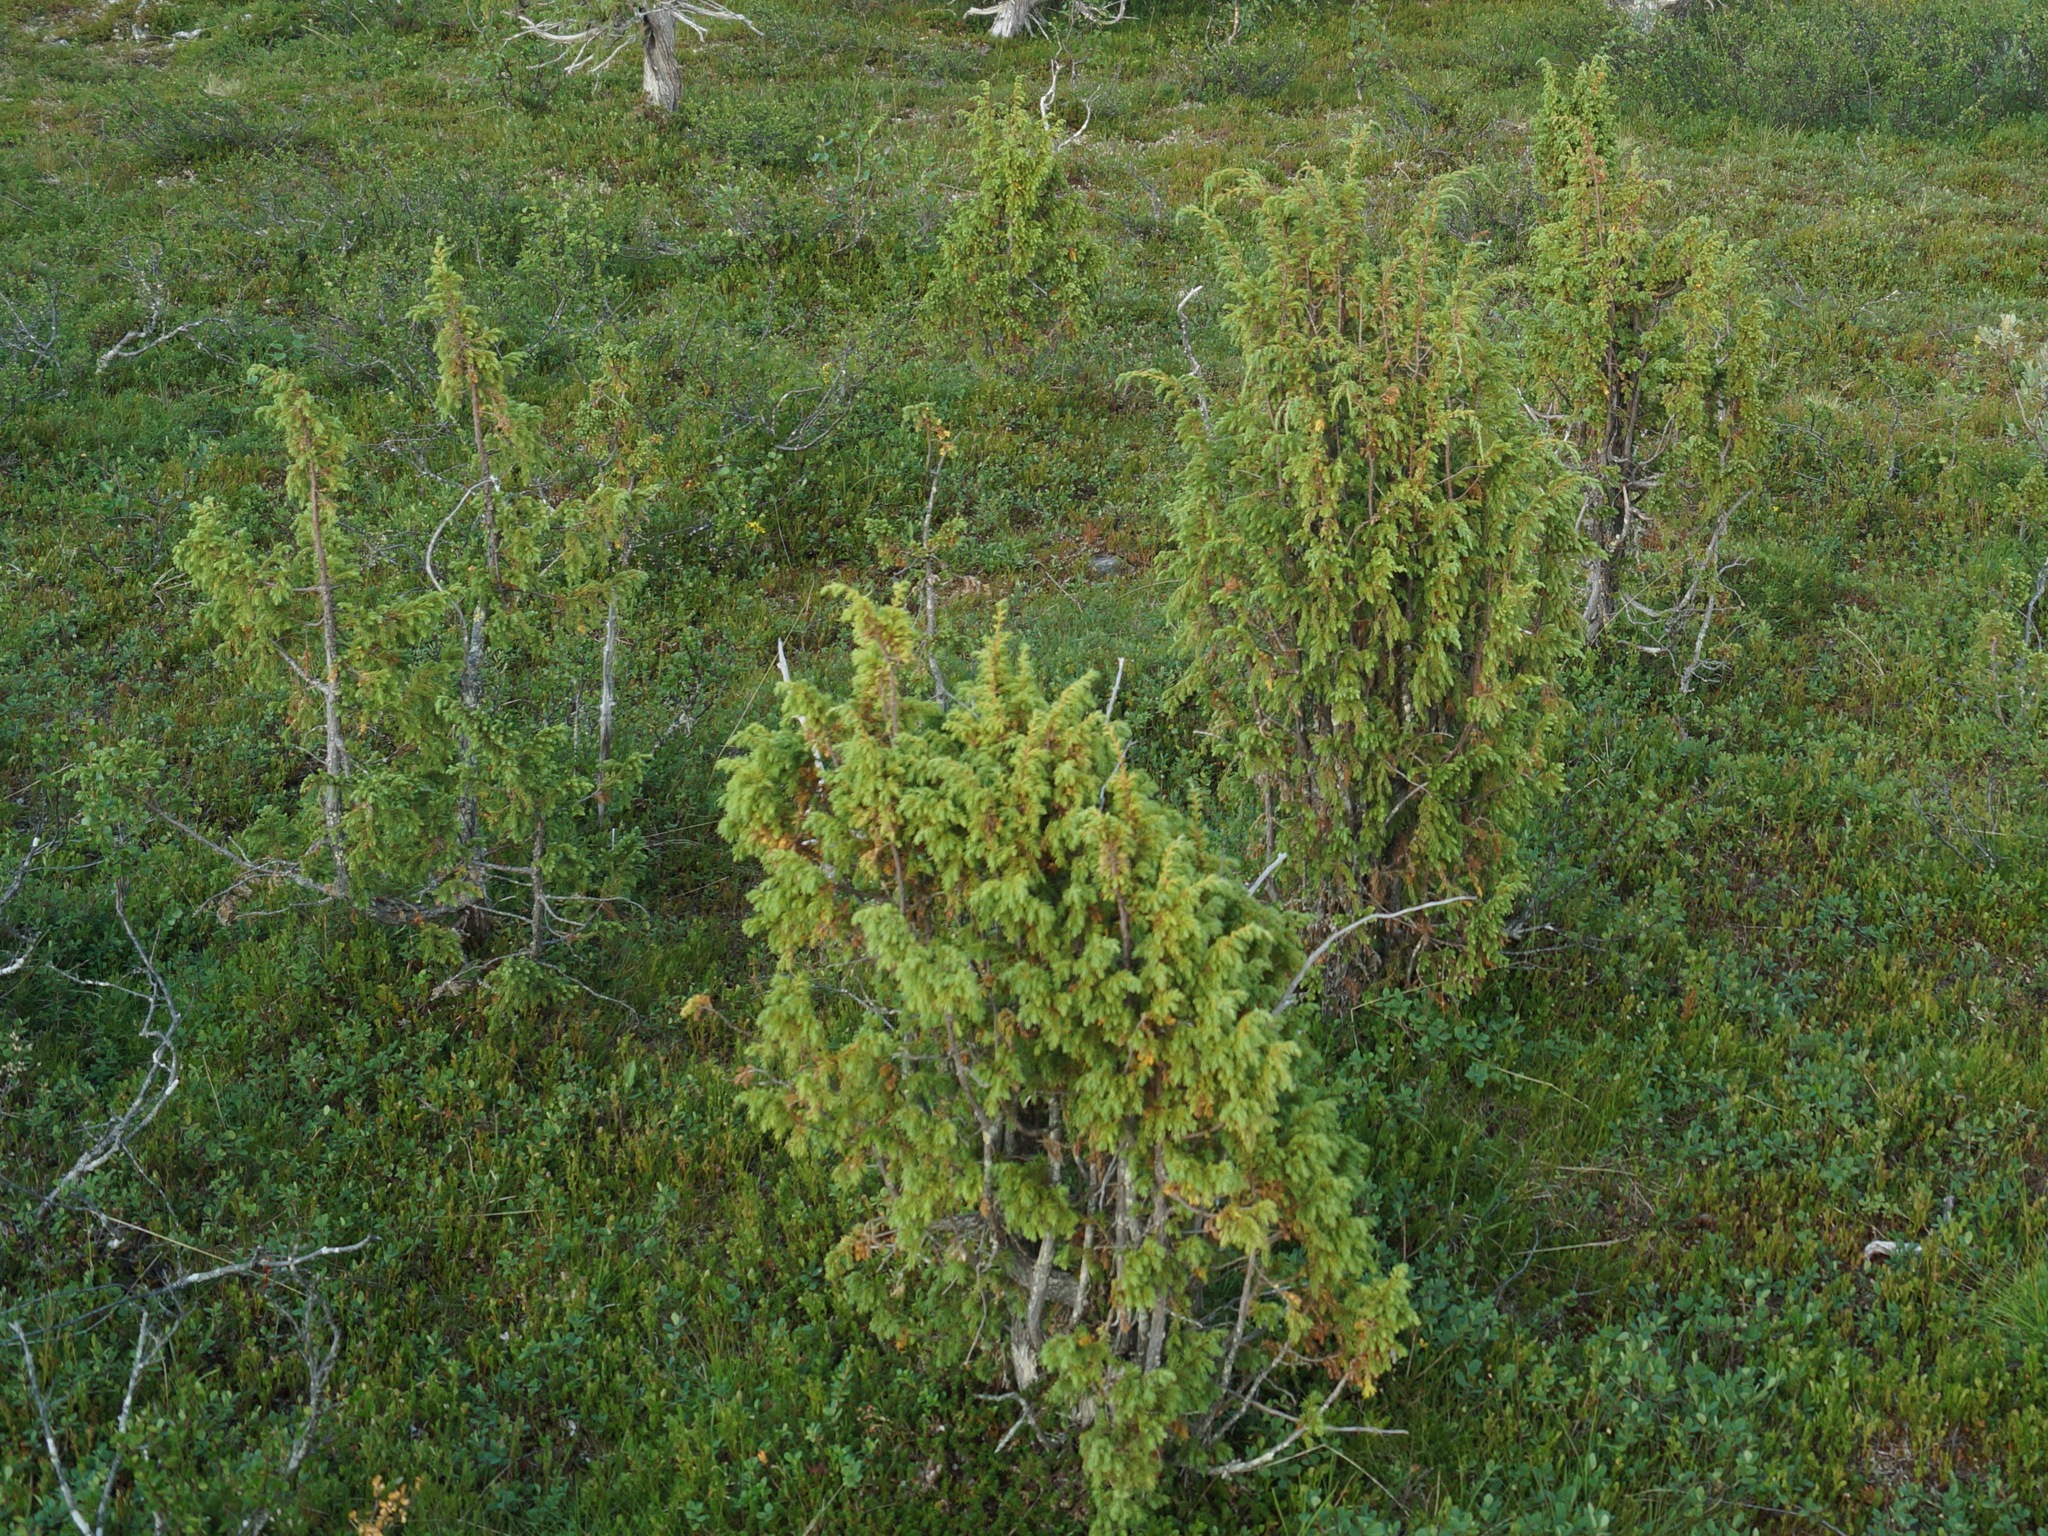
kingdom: Plantae
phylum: Tracheophyta
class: Pinopsida
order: Pinales
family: Cupressaceae
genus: Juniperus
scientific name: Juniperus communis
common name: Common juniper
